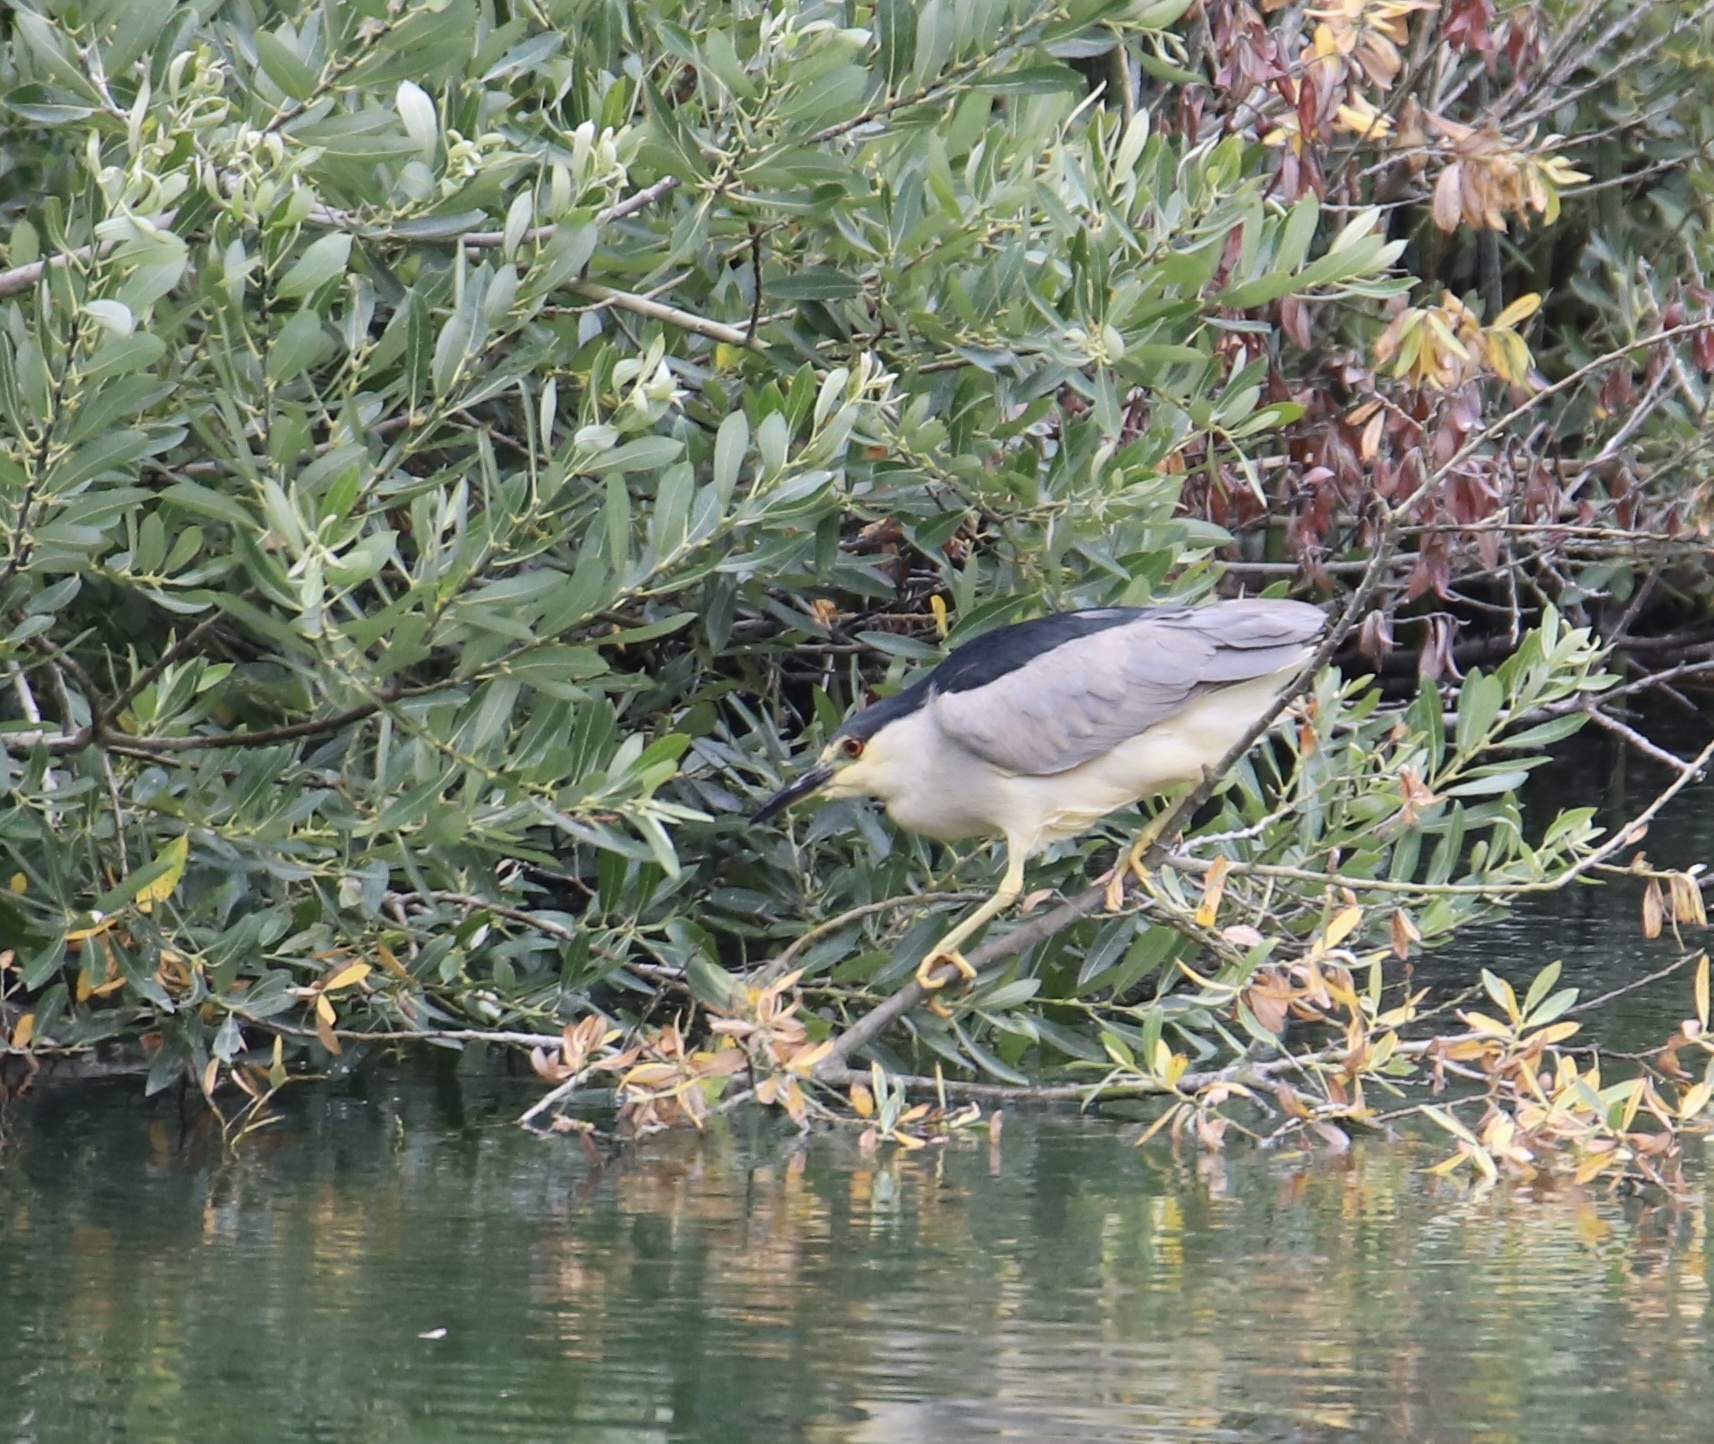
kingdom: Animalia
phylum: Chordata
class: Aves
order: Pelecaniformes
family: Ardeidae
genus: Nycticorax
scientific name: Nycticorax nycticorax
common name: Black-crowned night heron
